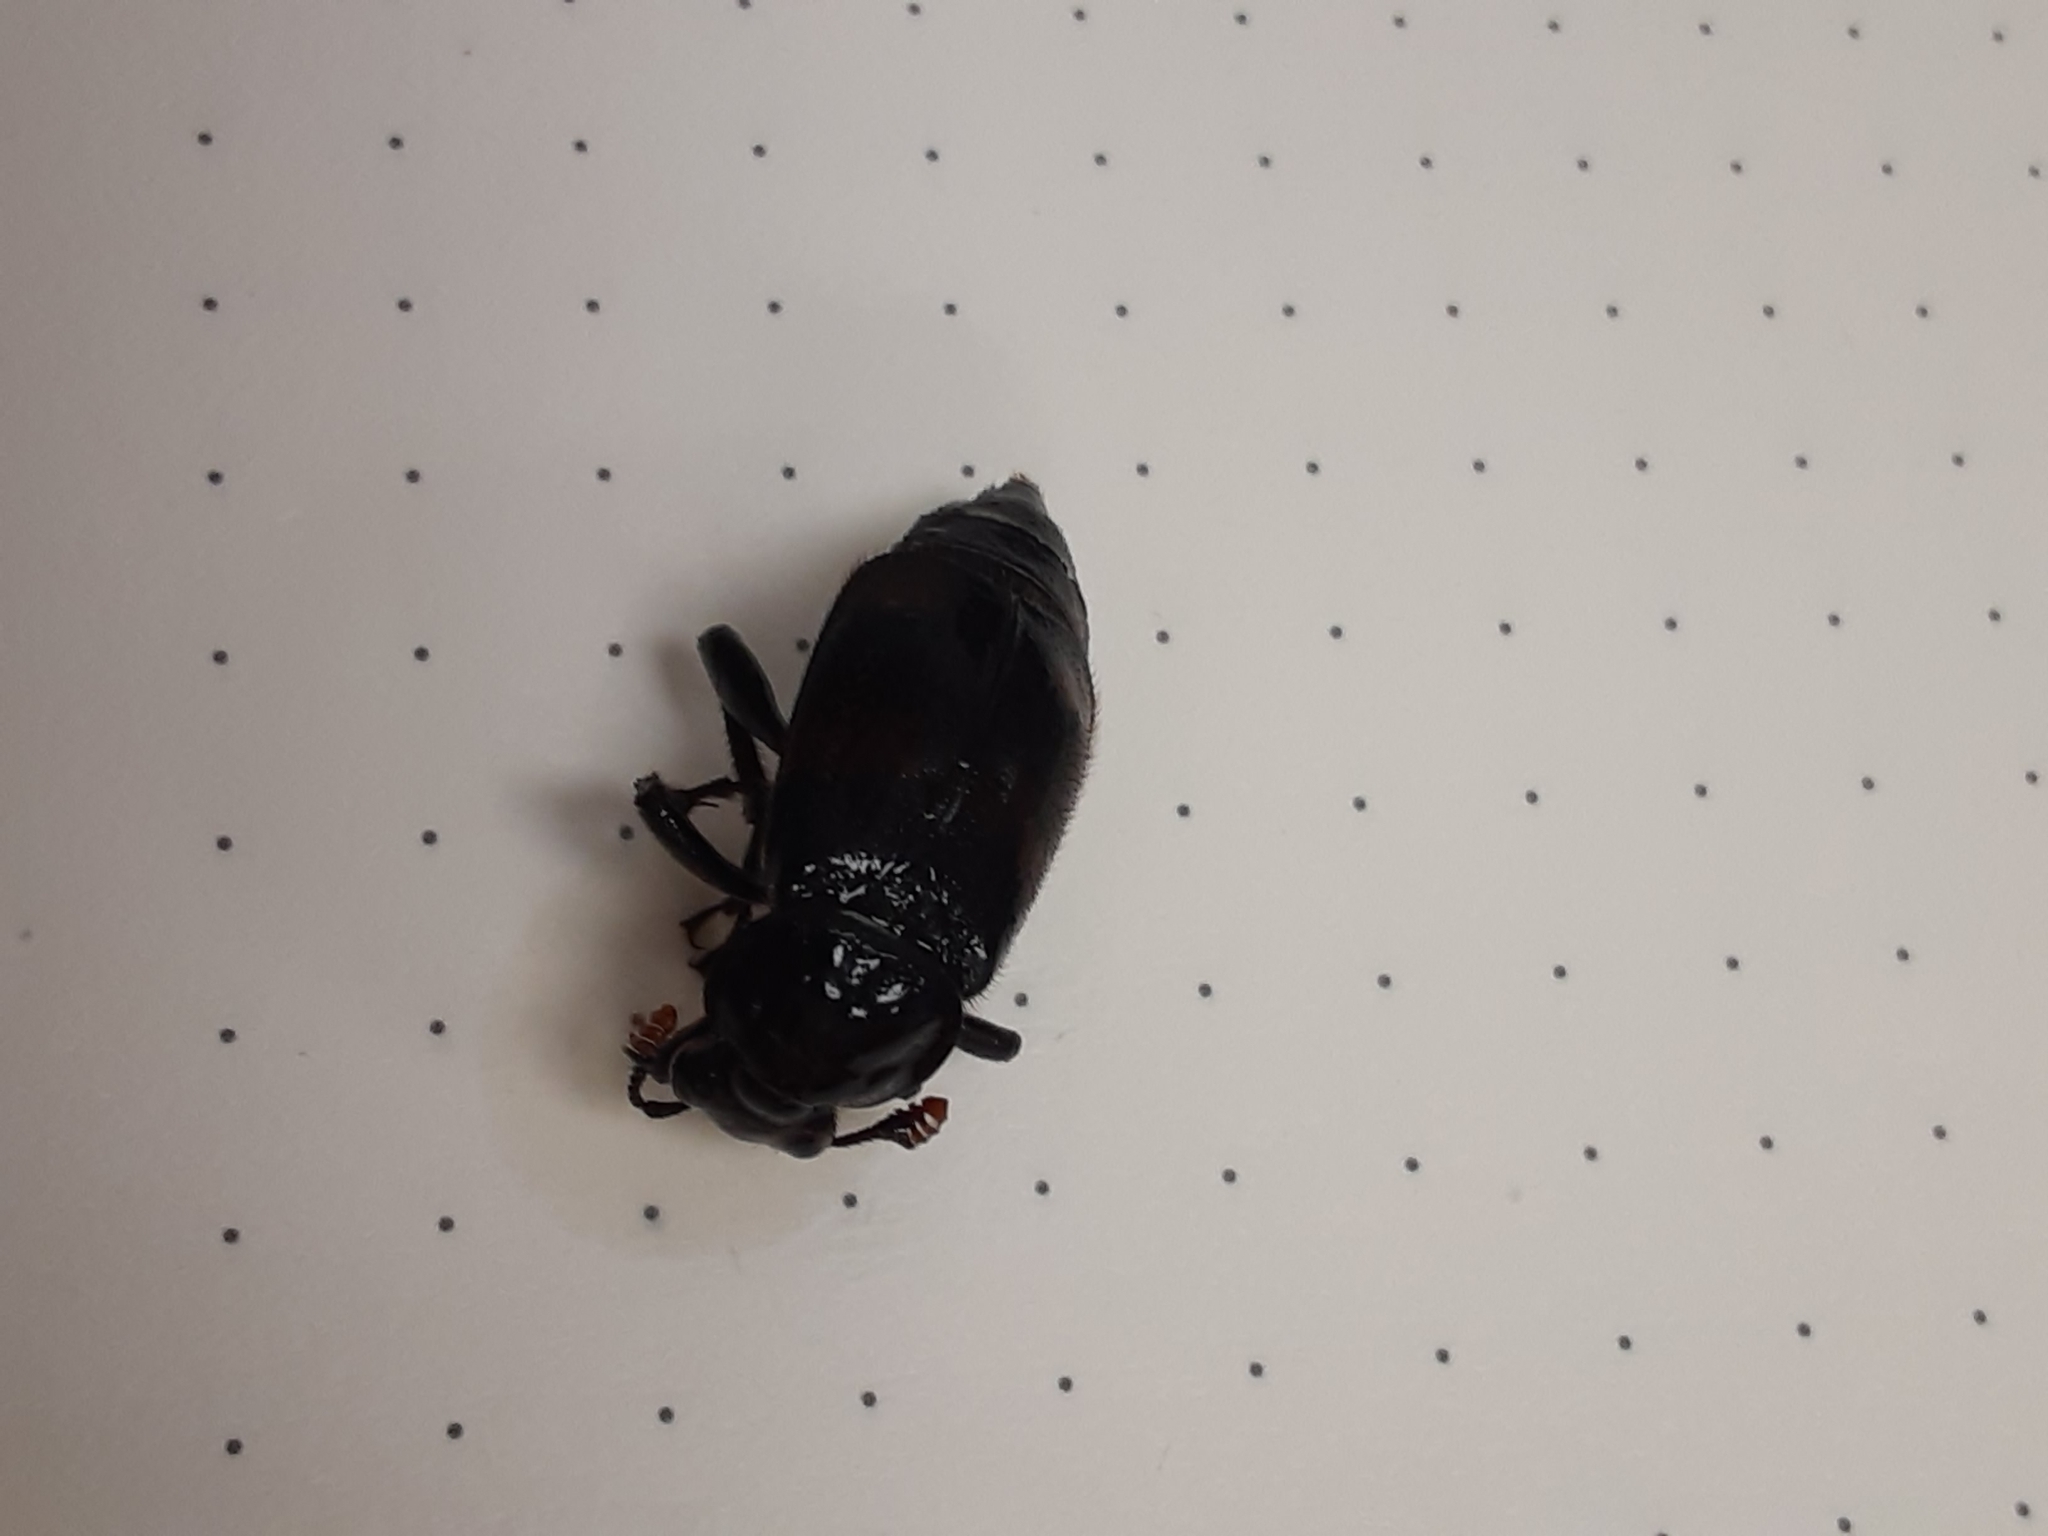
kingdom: Animalia
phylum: Arthropoda
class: Insecta
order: Coleoptera
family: Staphylinidae
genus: Nicrophorus
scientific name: Nicrophorus orbicollis
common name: Roundneck sexton beetle
